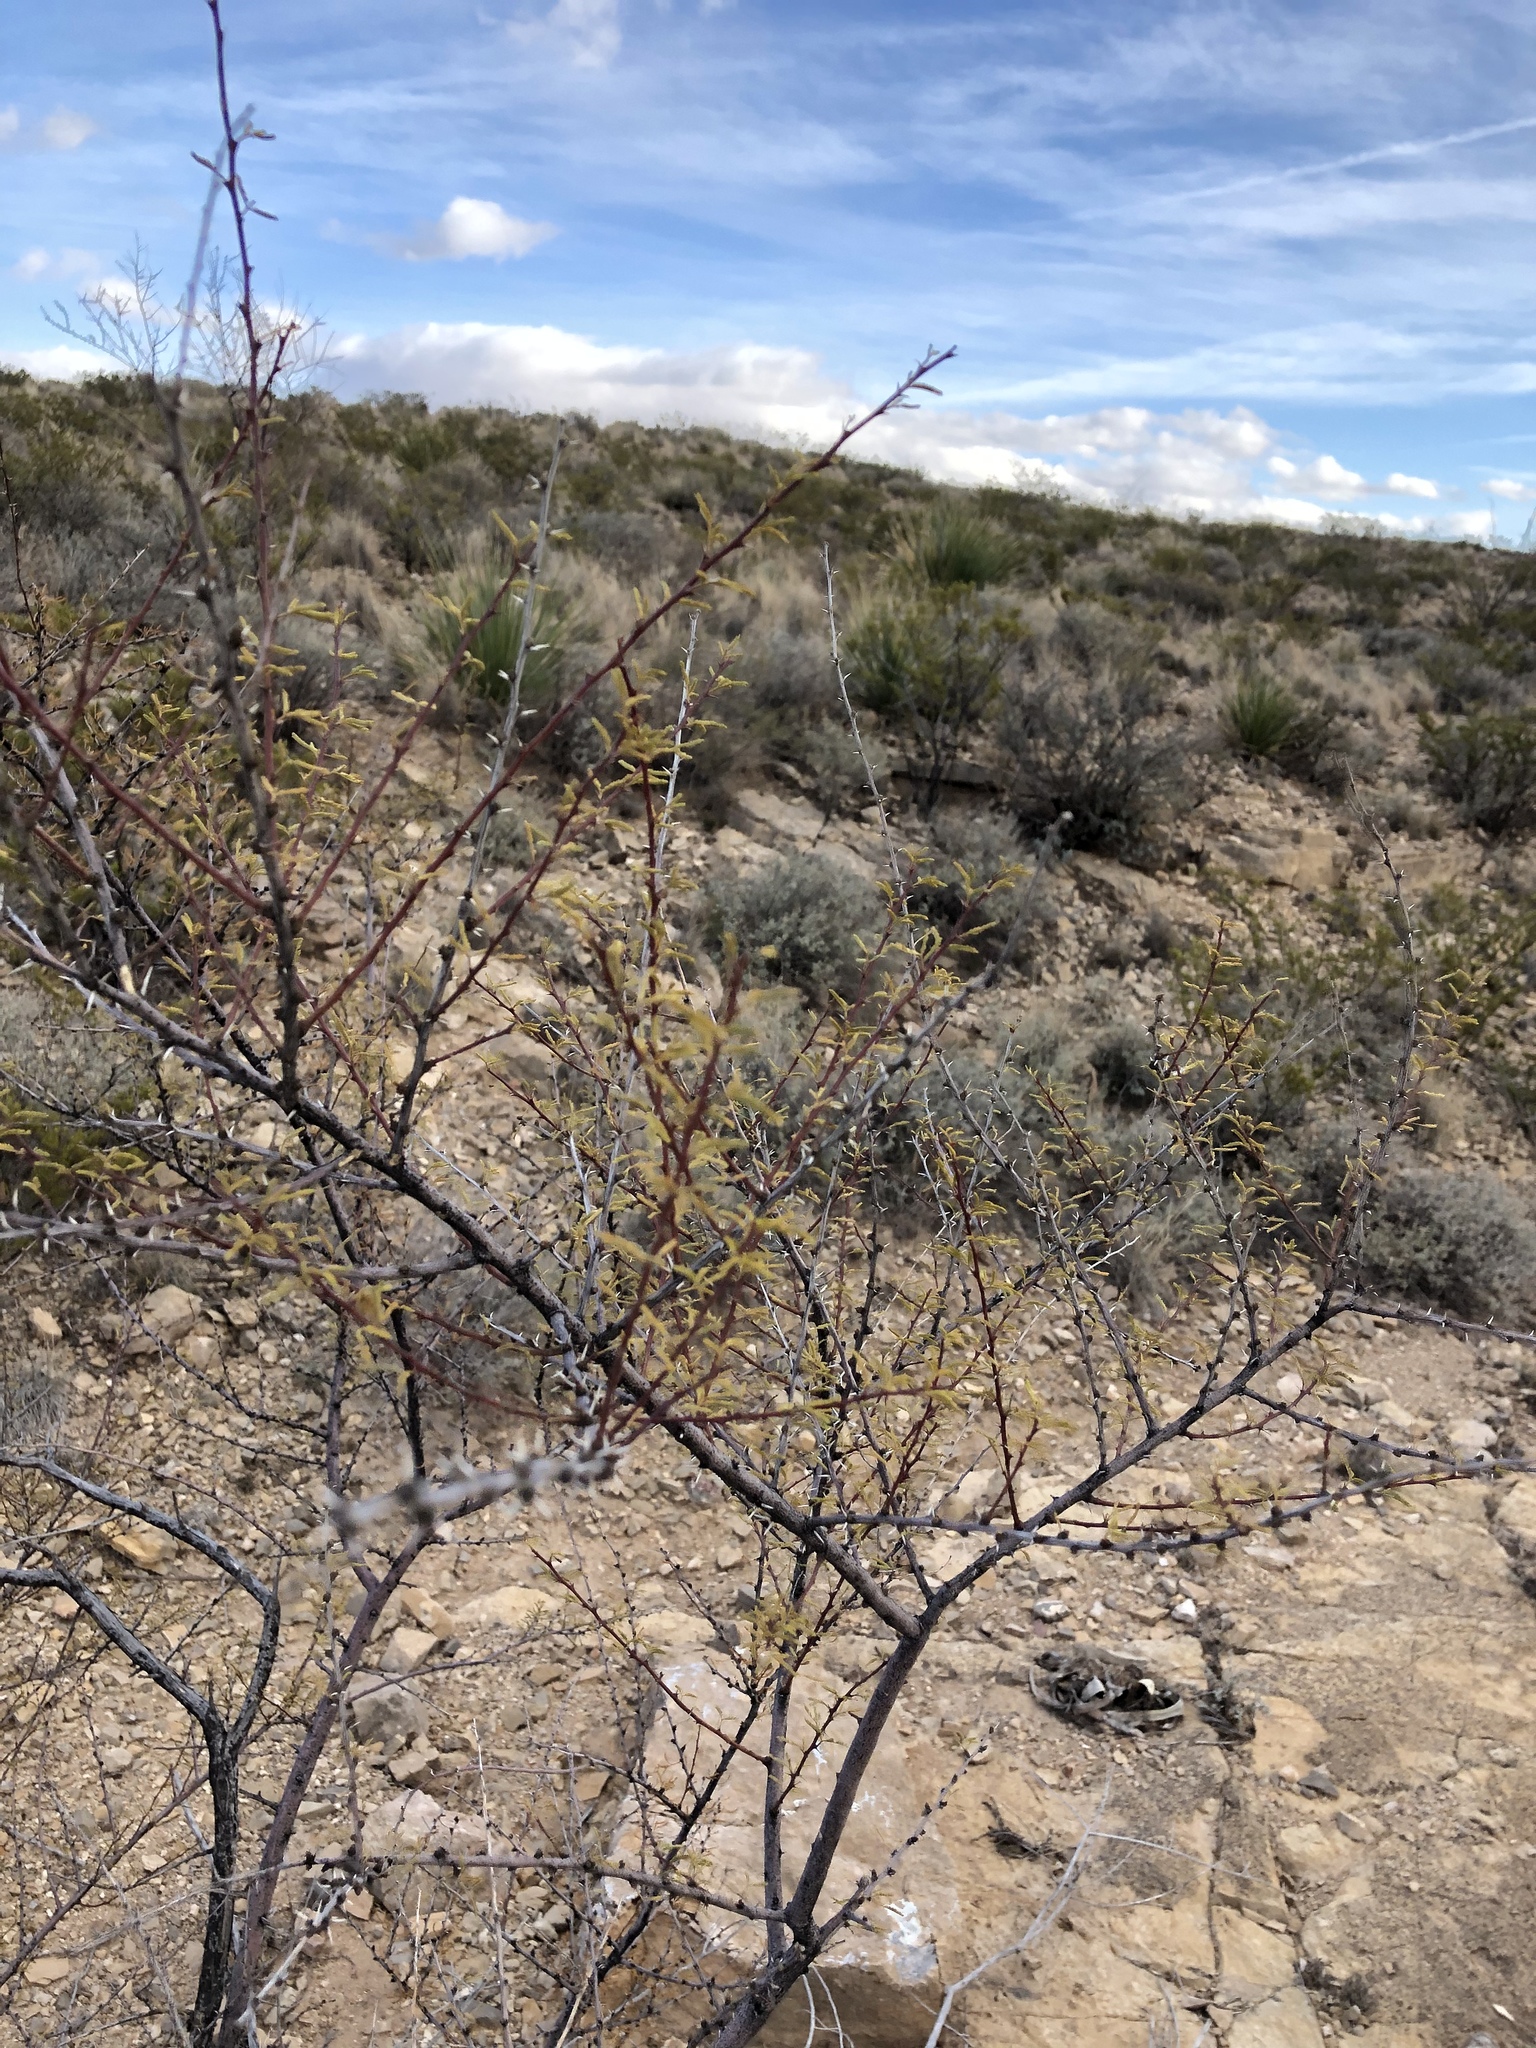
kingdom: Plantae
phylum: Tracheophyta
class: Magnoliopsida
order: Fabales
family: Fabaceae
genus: Vachellia
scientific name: Vachellia vernicosa
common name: Viscid acacia
